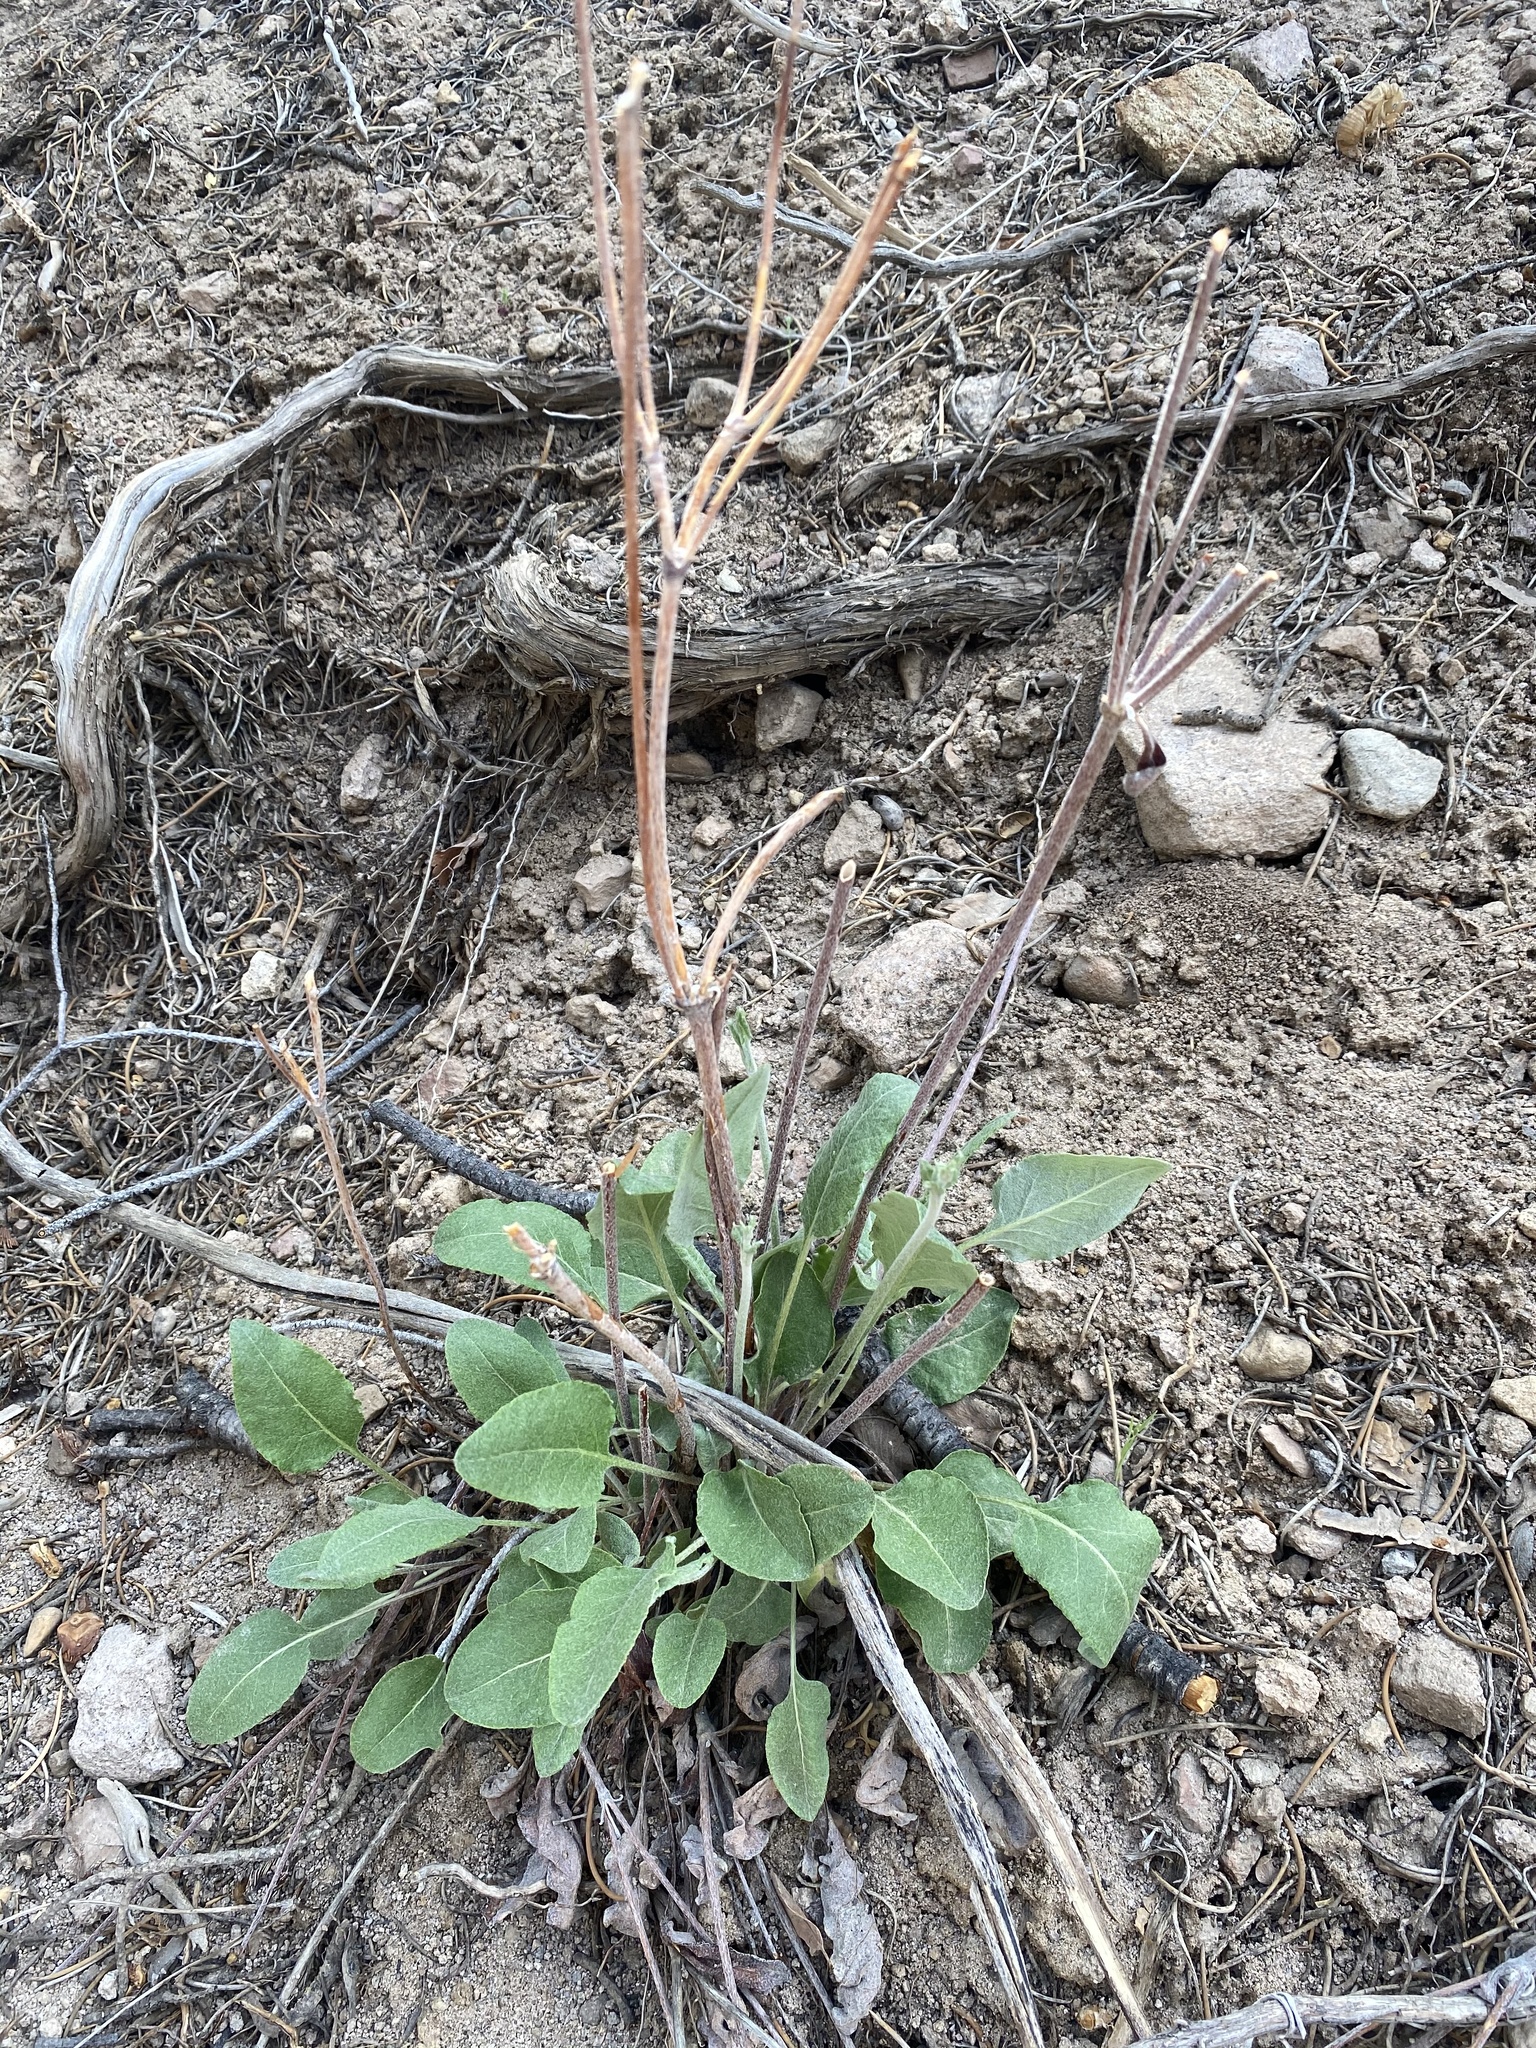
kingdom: Plantae
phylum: Tracheophyta
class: Magnoliopsida
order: Caryophyllales
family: Polygonaceae
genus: Eriogonum
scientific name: Eriogonum racemosum
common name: Redroot wild buckwheat
